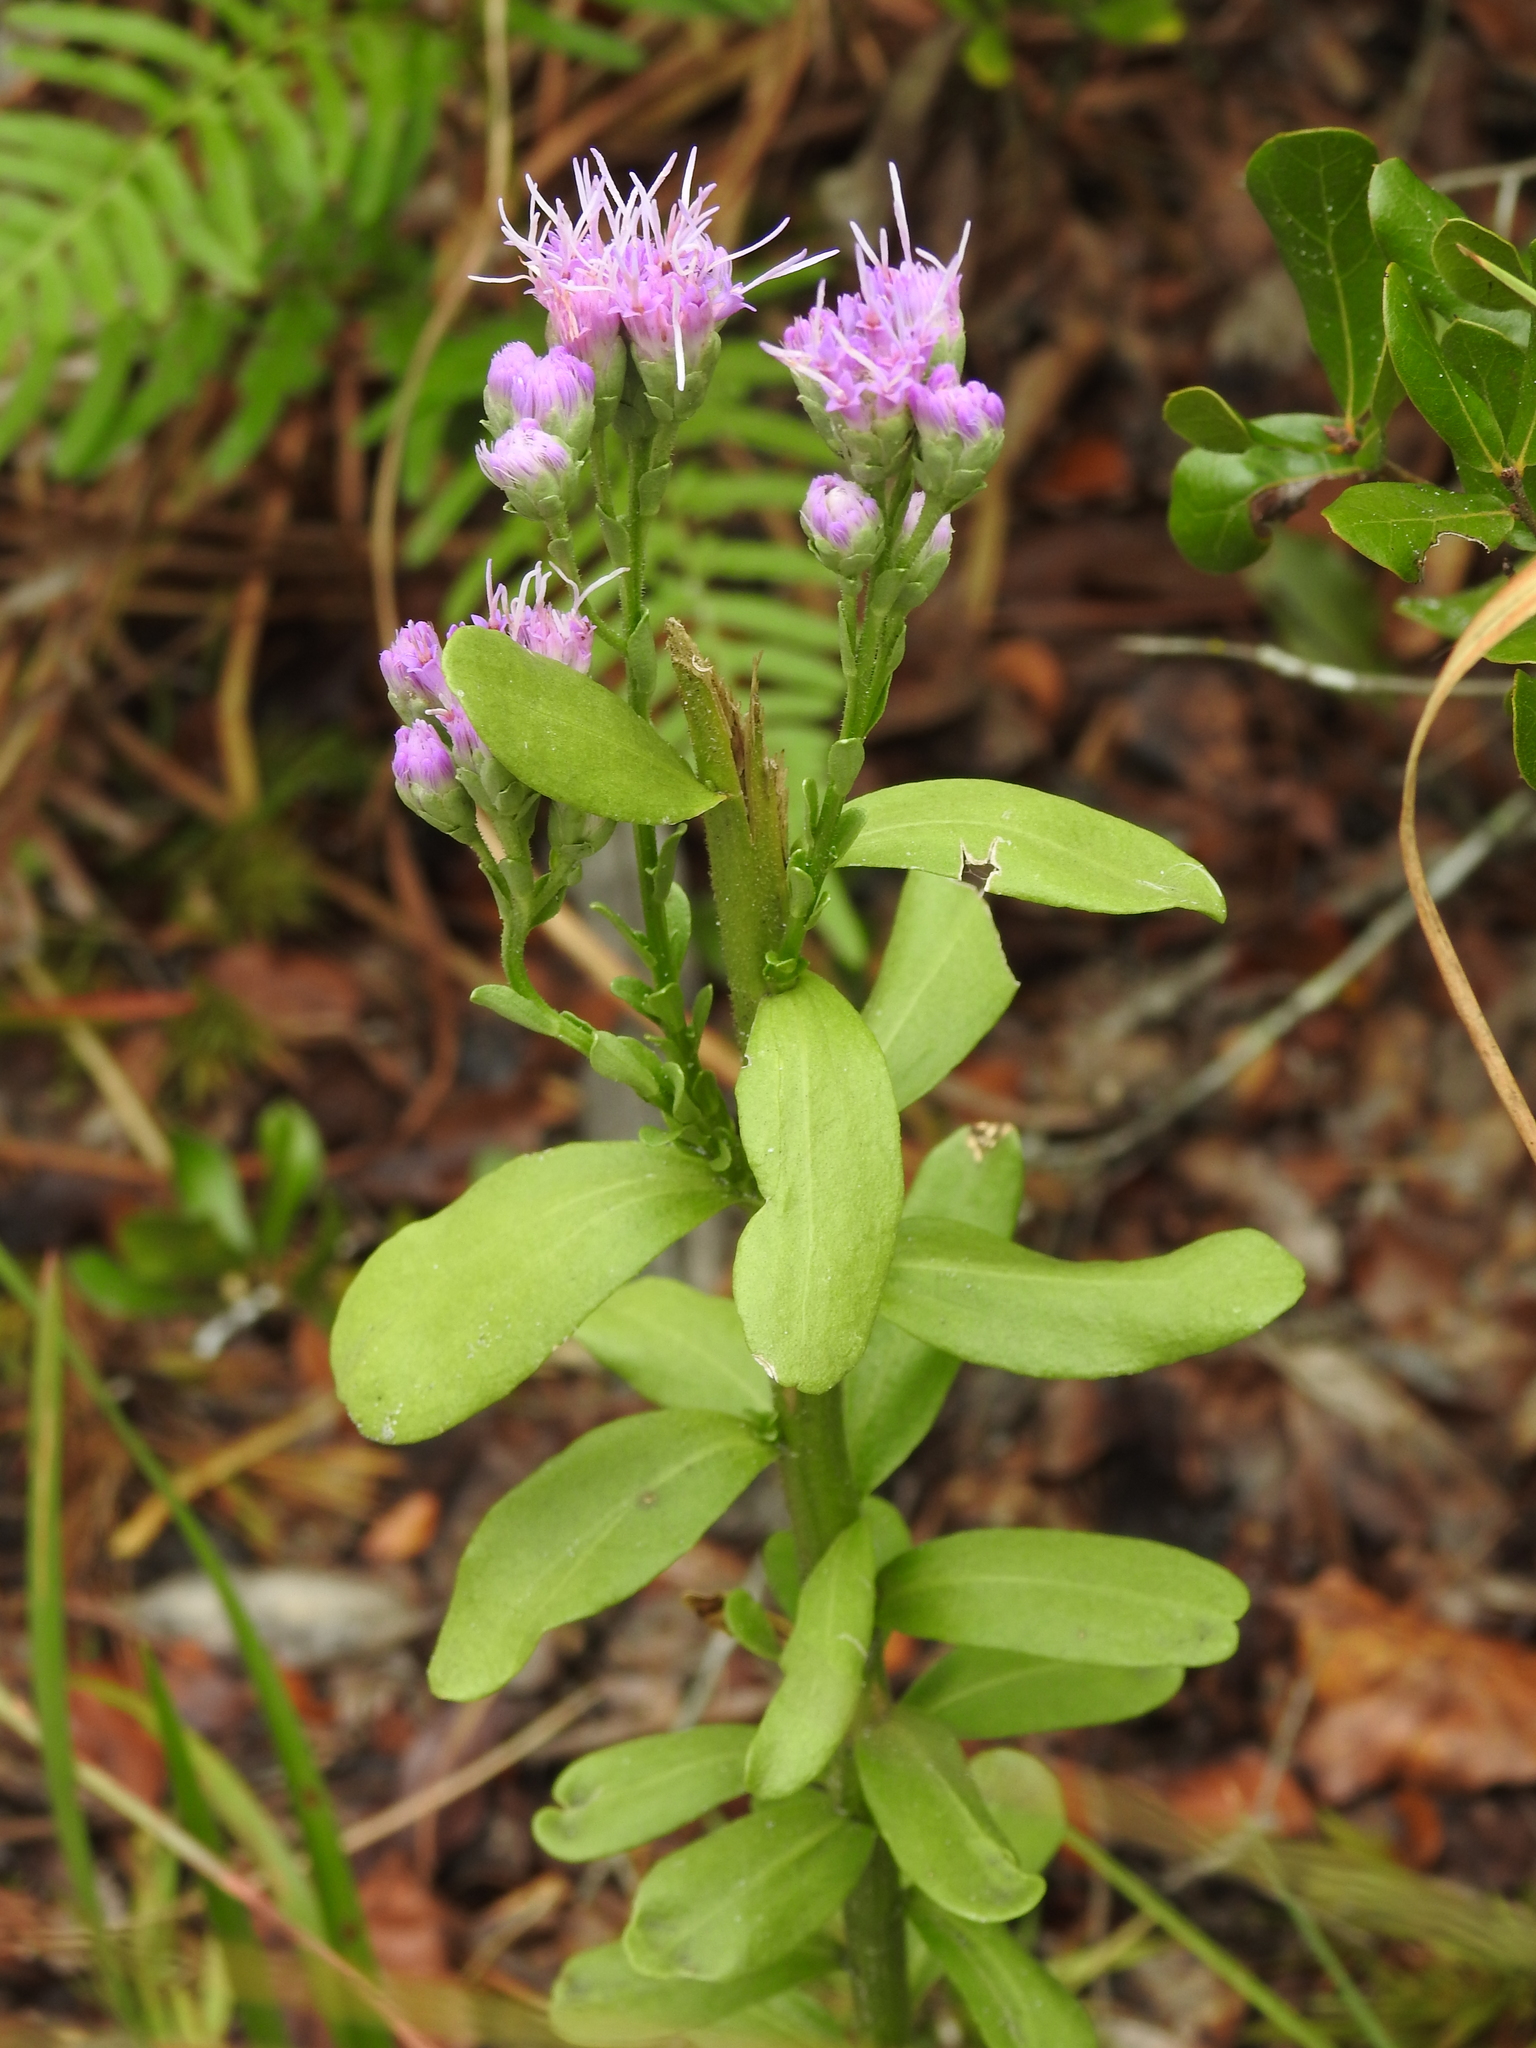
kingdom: Plantae
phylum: Tracheophyta
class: Magnoliopsida
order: Asterales
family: Asteraceae
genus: Carphephorus
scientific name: Carphephorus corymbosus
